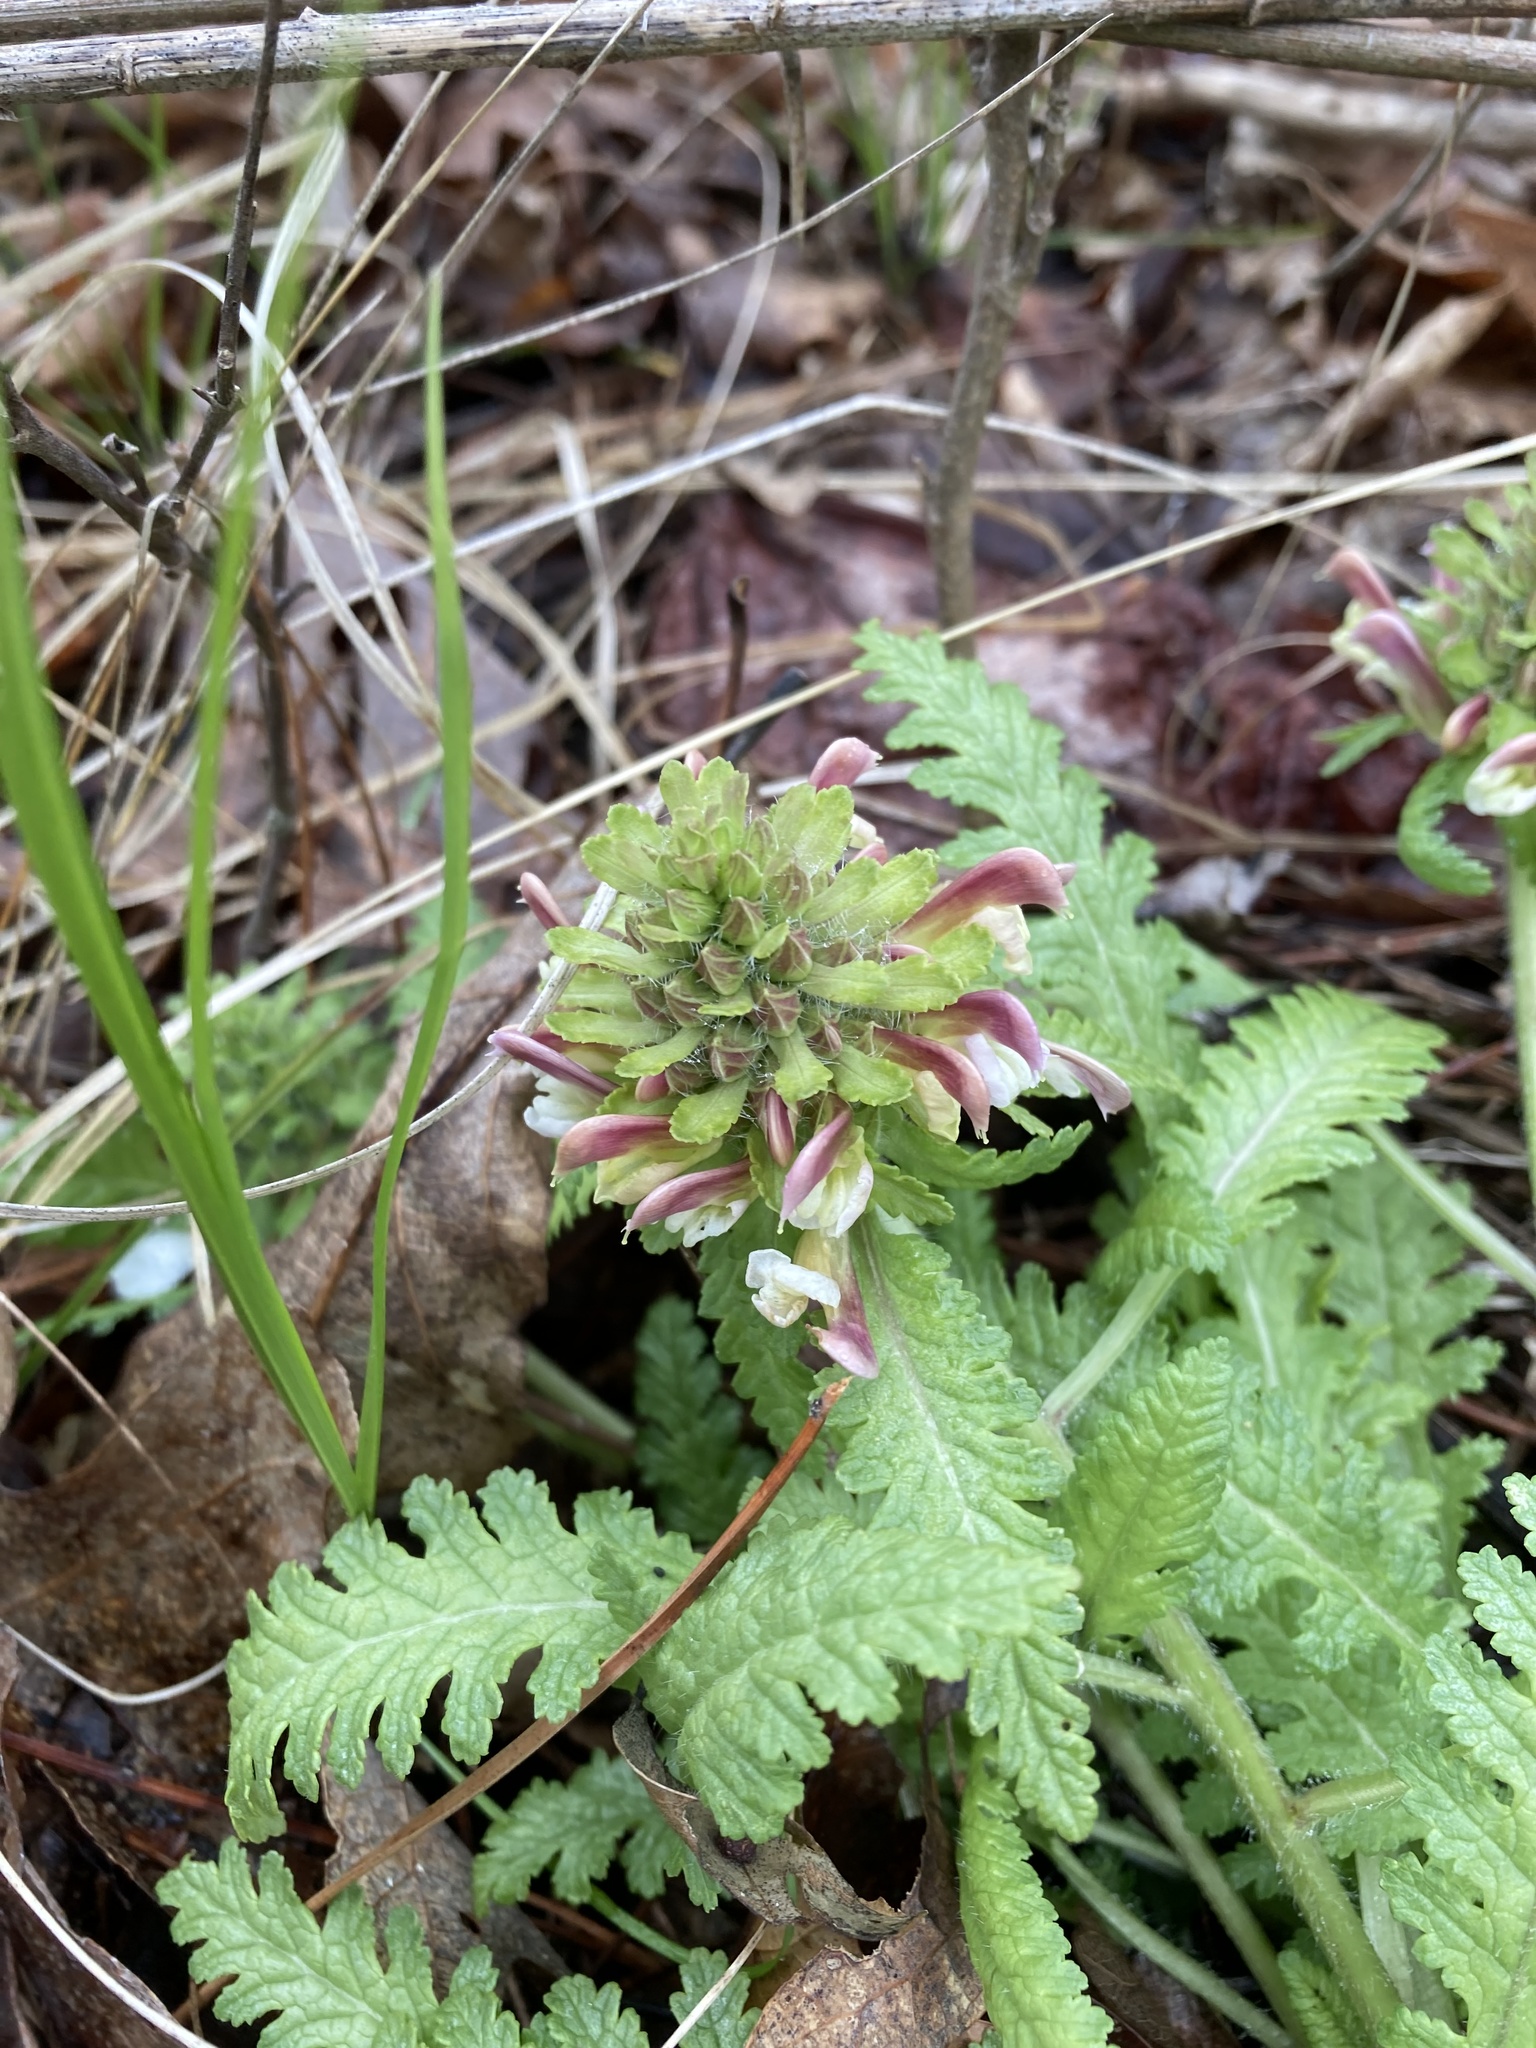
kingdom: Plantae
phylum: Tracheophyta
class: Magnoliopsida
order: Lamiales
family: Orobanchaceae
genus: Pedicularis
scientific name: Pedicularis canadensis
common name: Early lousewort
